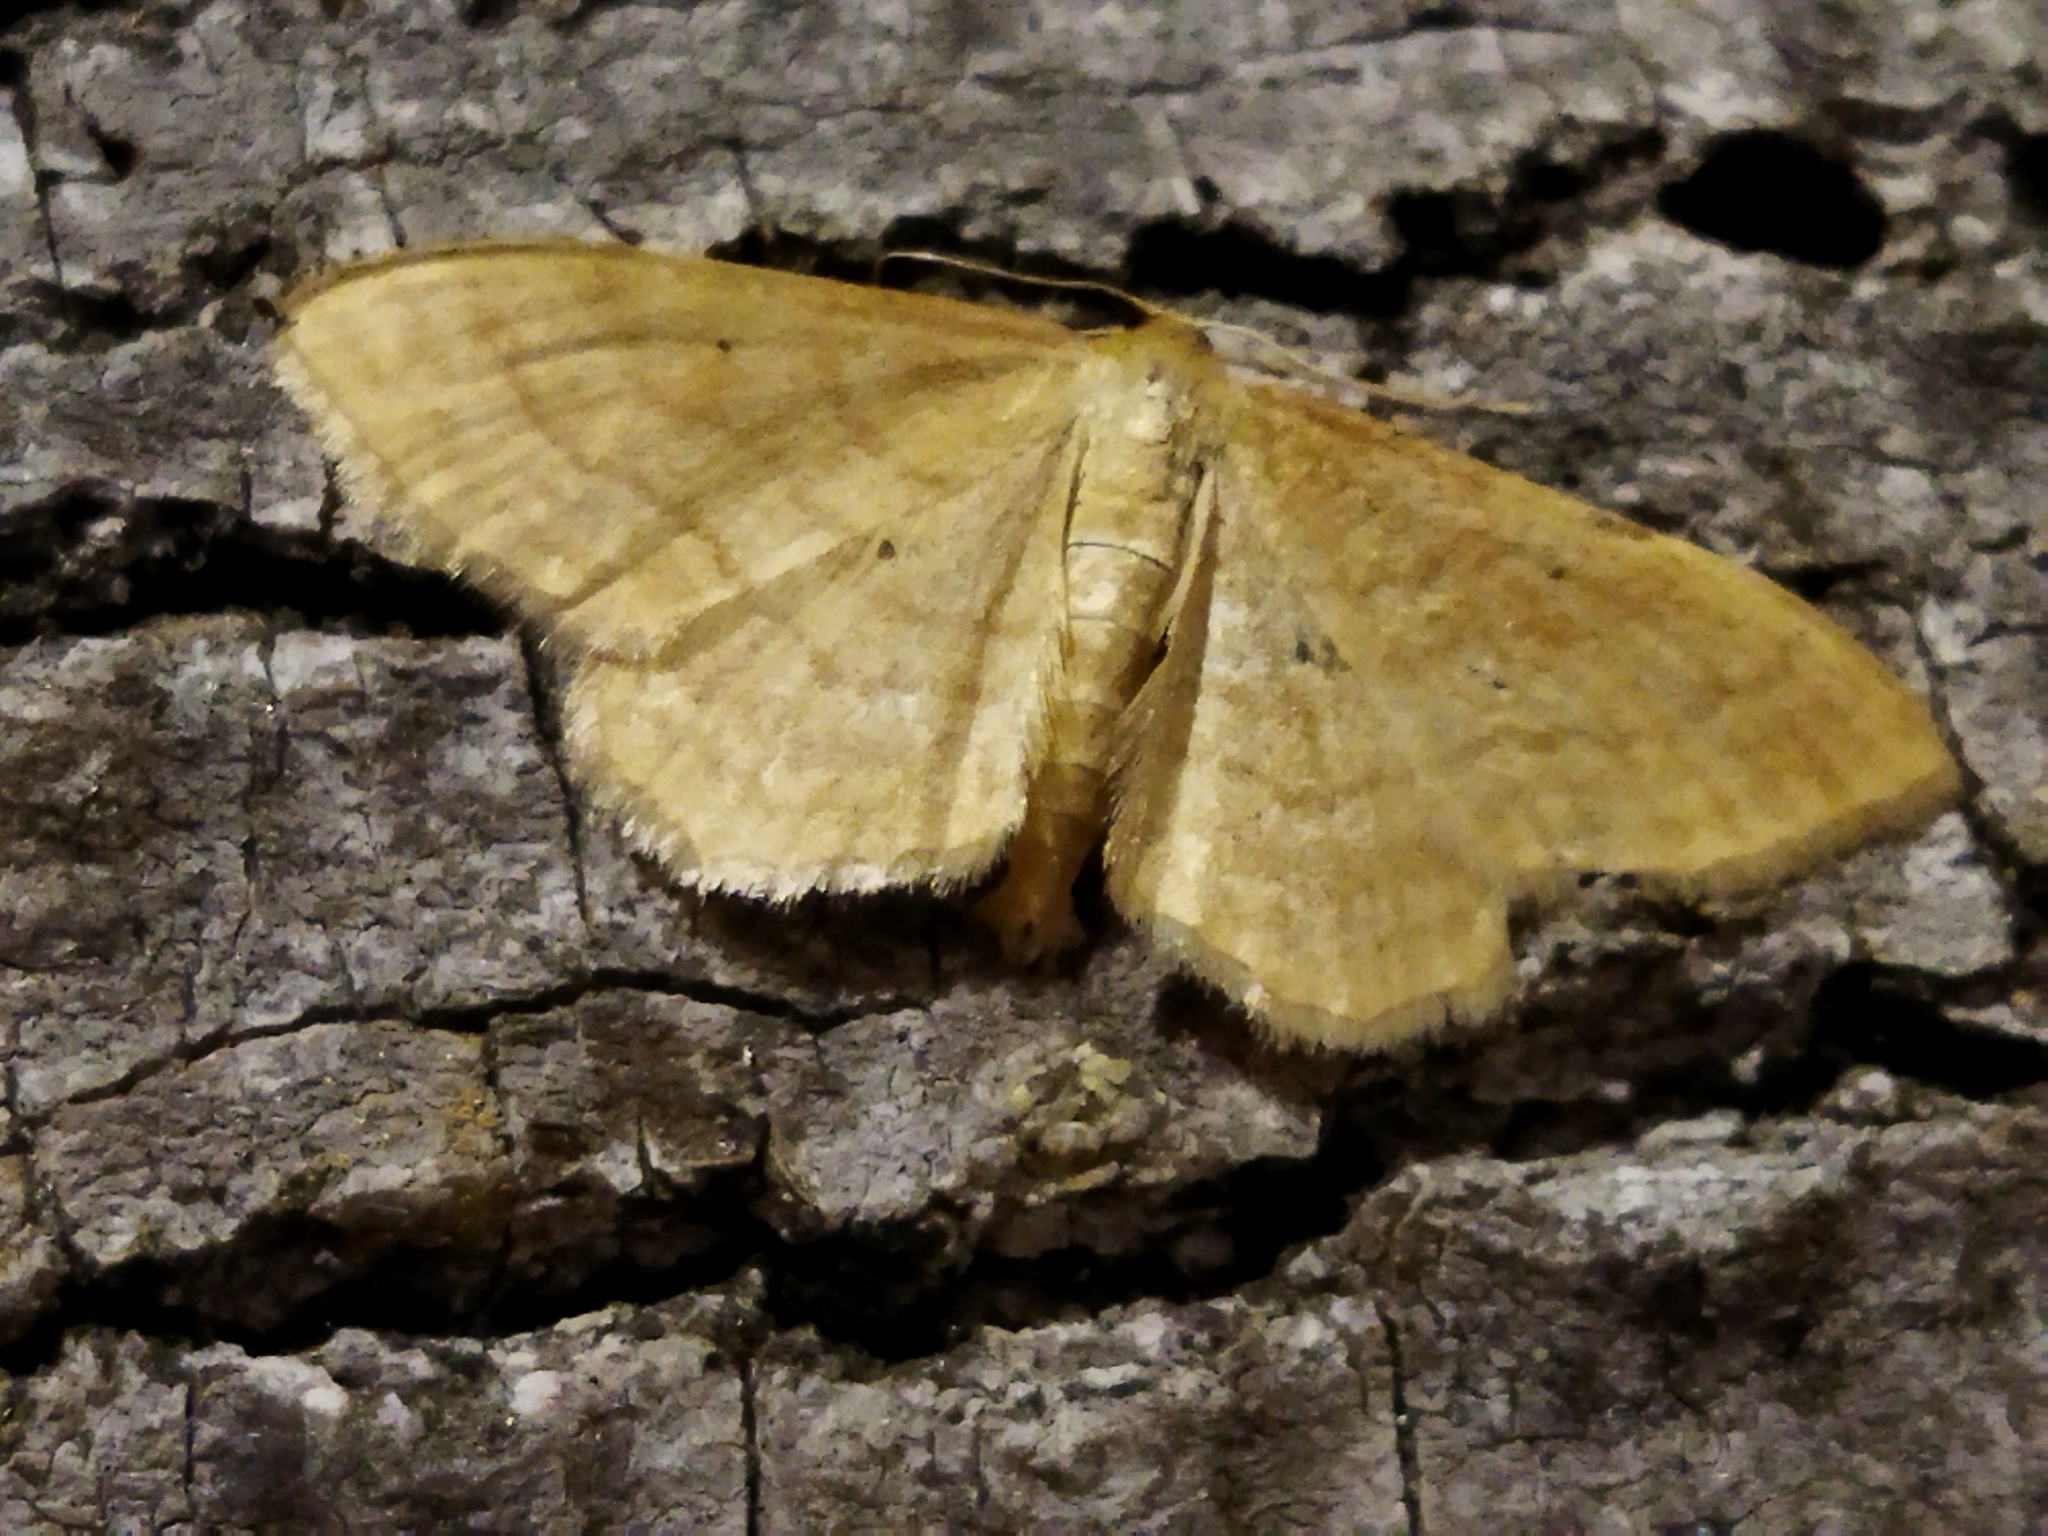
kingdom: Animalia
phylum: Arthropoda
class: Insecta
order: Lepidoptera
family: Geometridae
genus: Idaea
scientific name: Idaea rufaria
